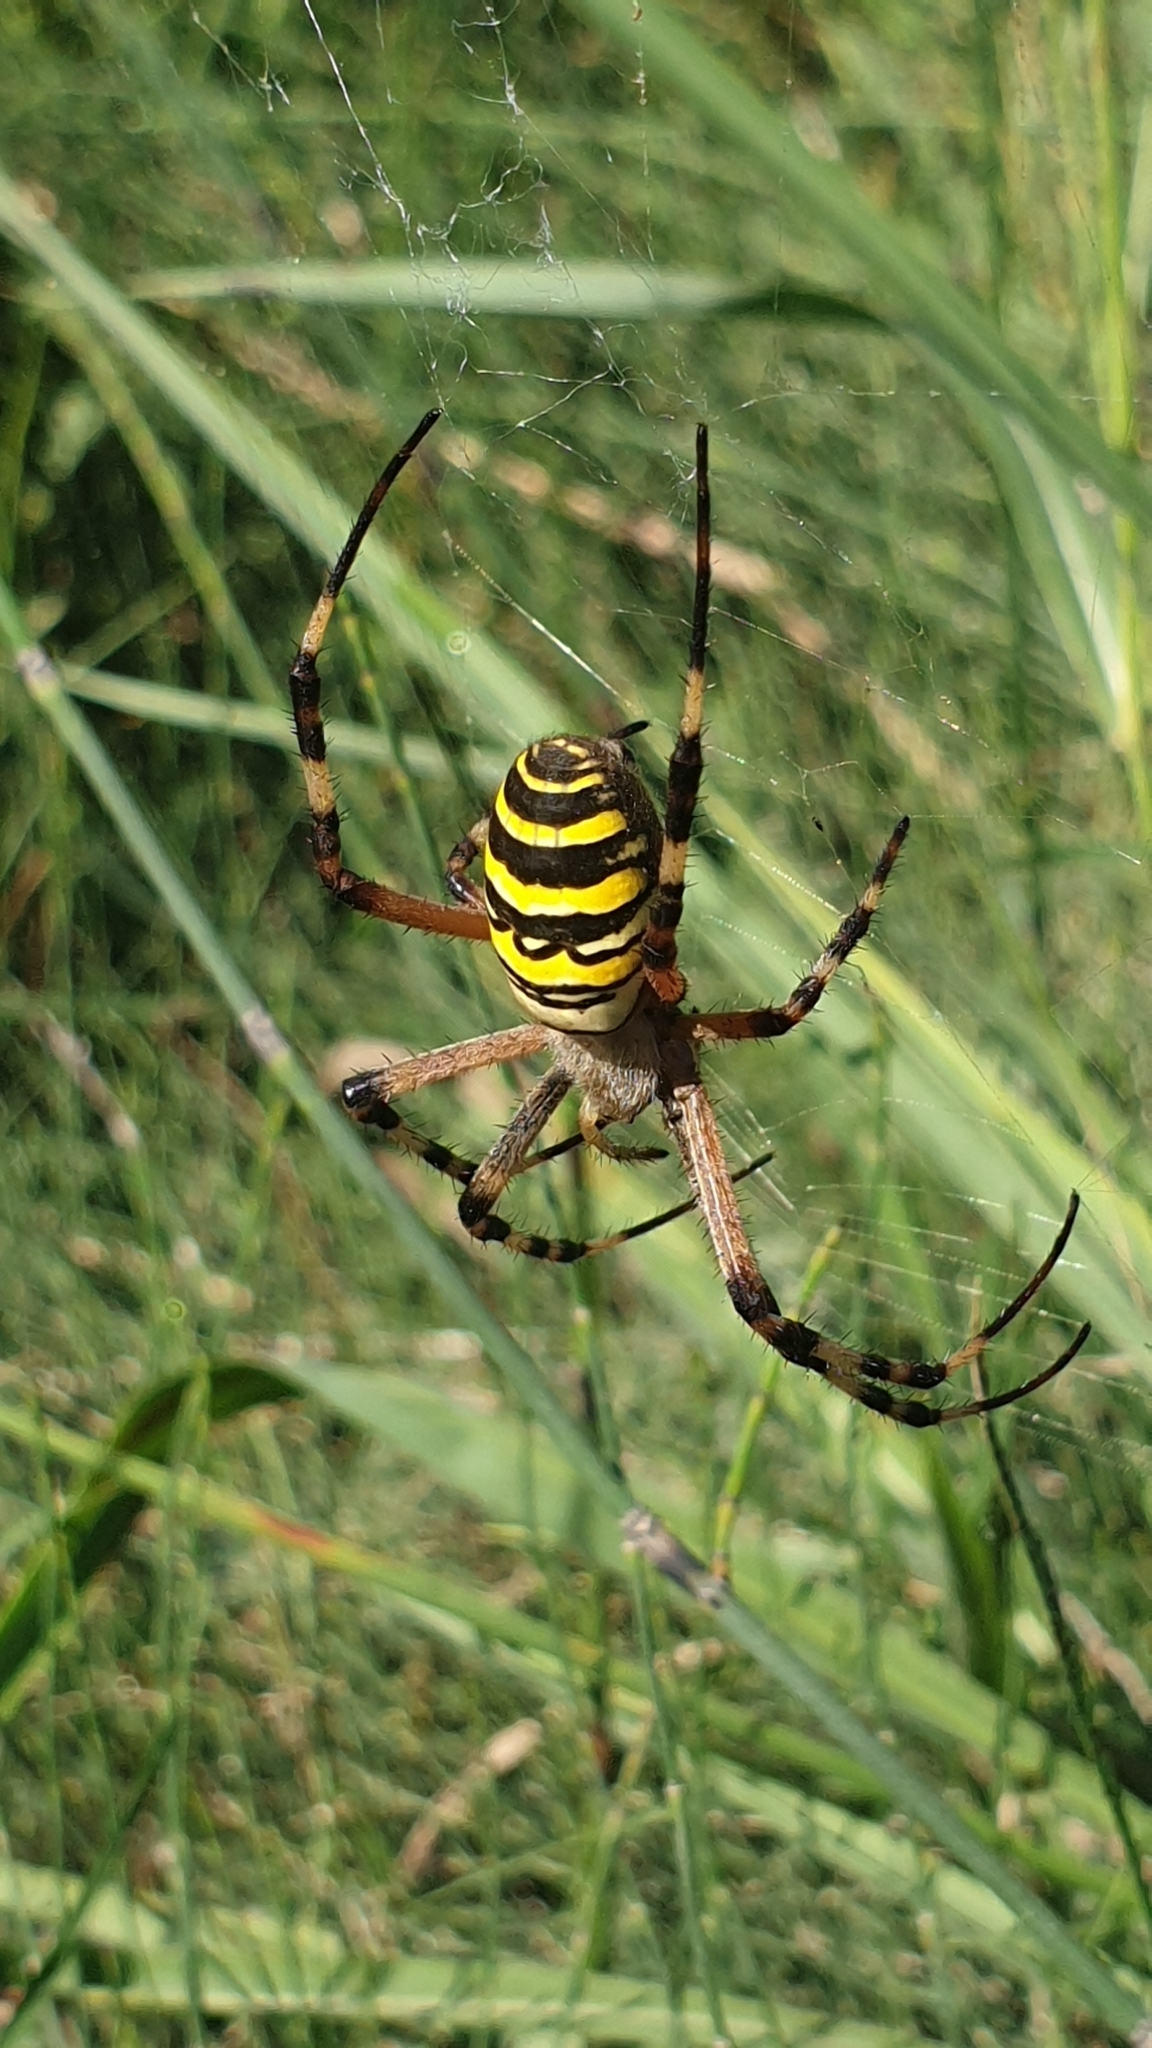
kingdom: Animalia
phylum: Arthropoda
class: Arachnida
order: Araneae
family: Araneidae
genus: Argiope
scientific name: Argiope bruennichi
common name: Wasp spider
